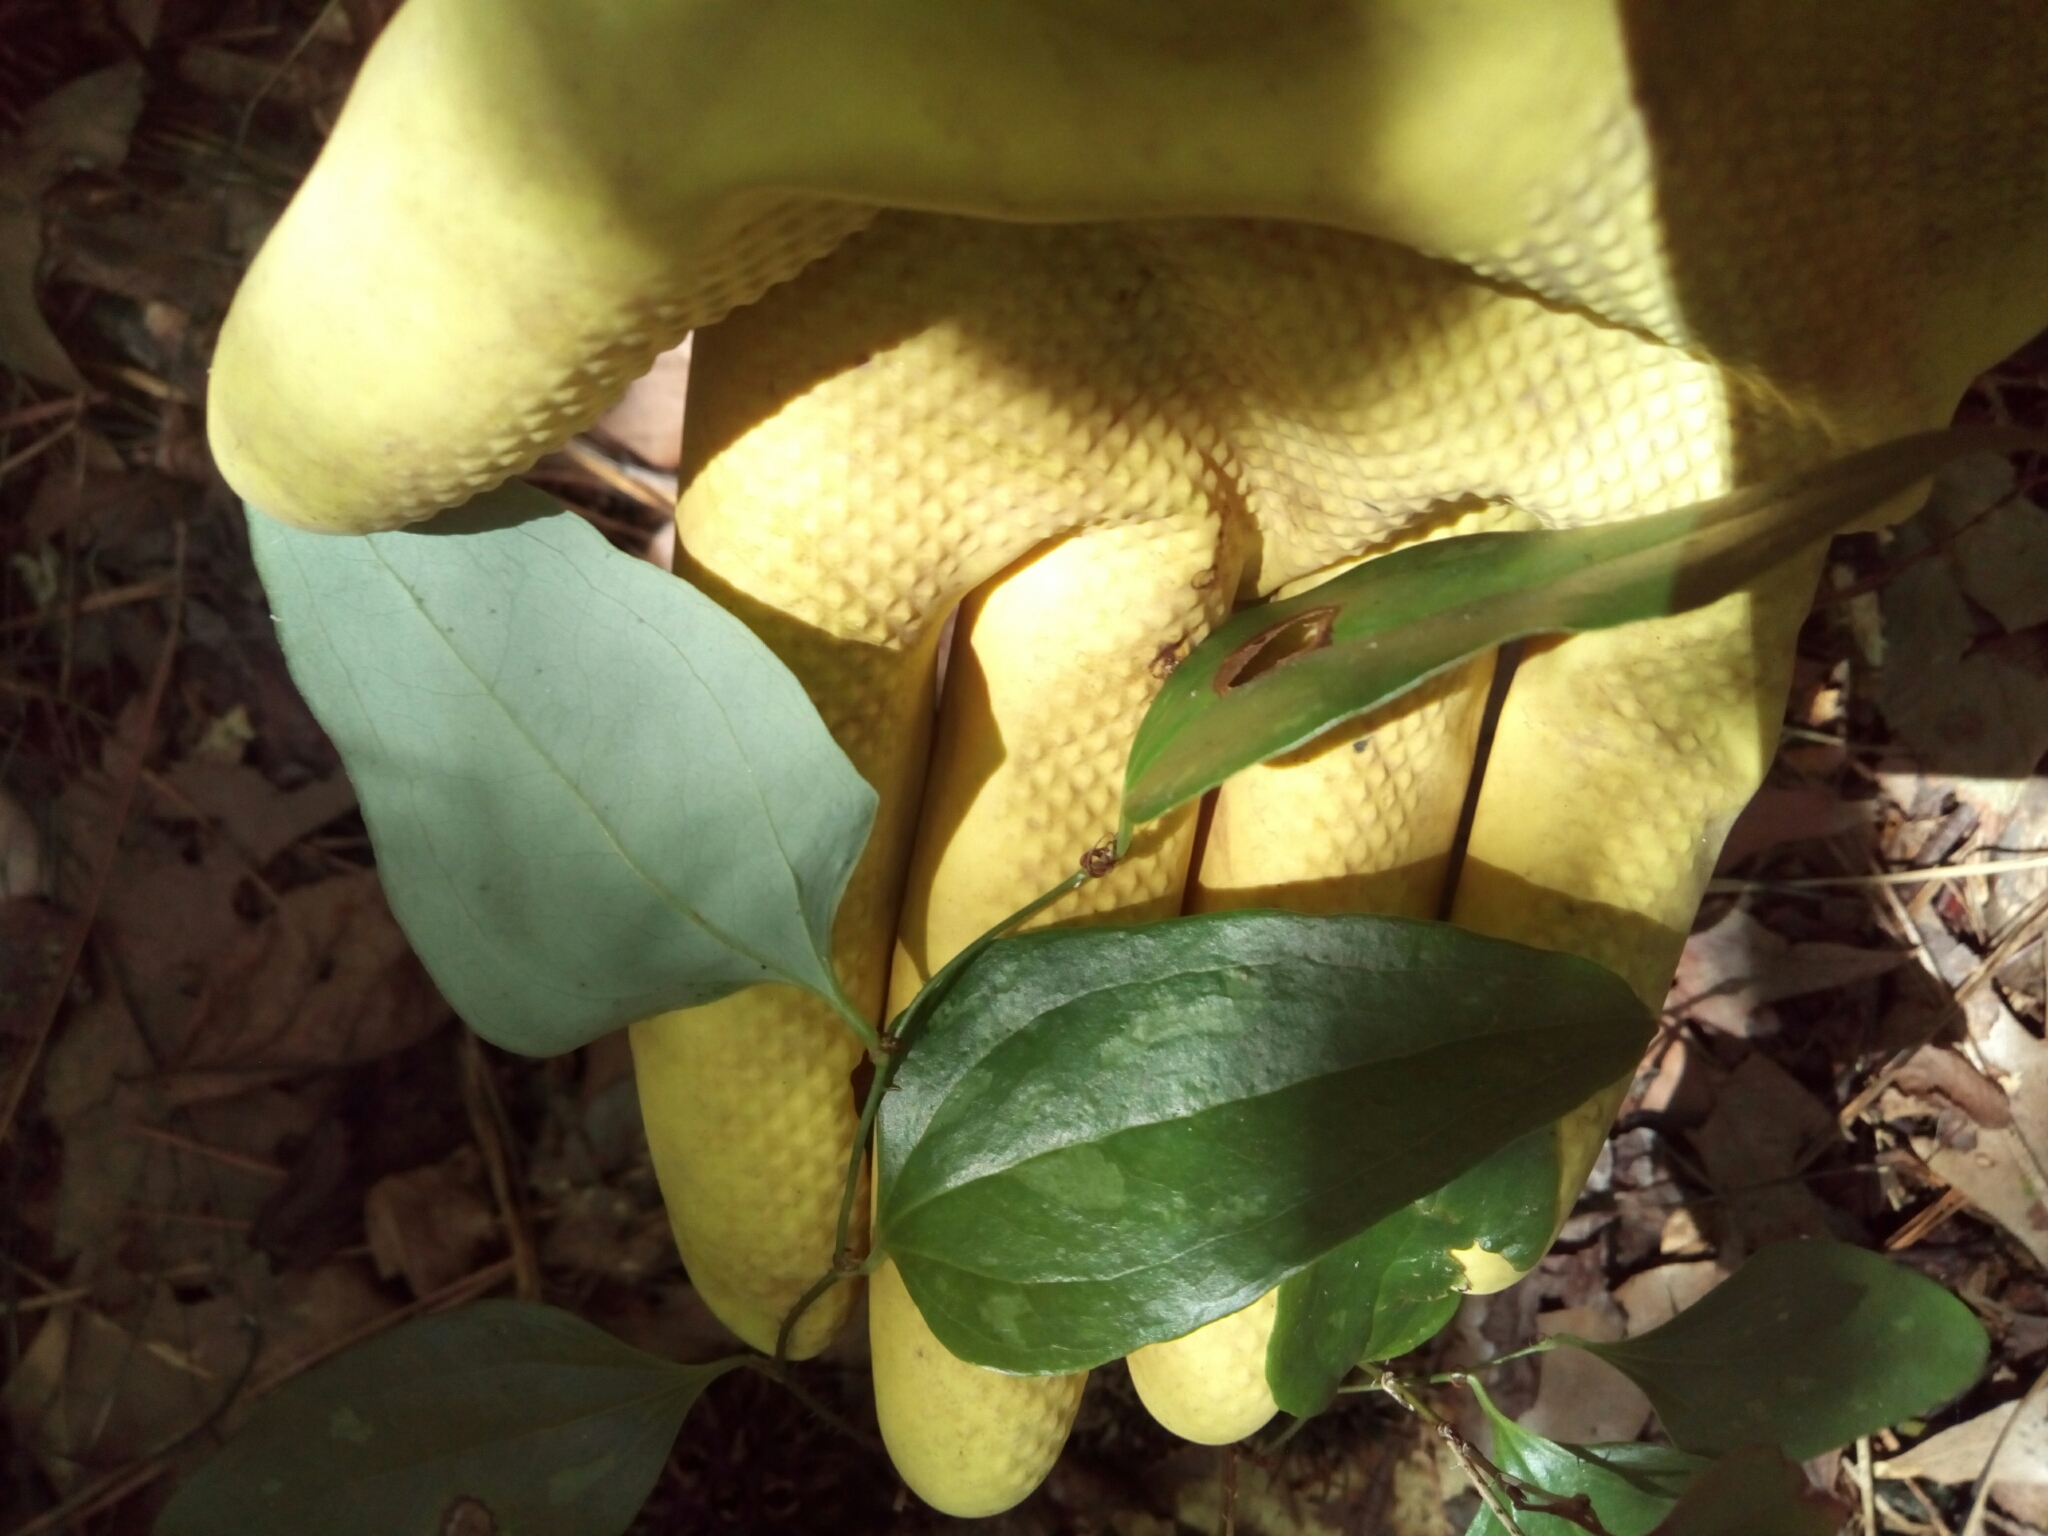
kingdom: Plantae
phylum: Tracheophyta
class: Liliopsida
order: Liliales
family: Smilacaceae
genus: Smilax
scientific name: Smilax glauca
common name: Cat greenbrier
